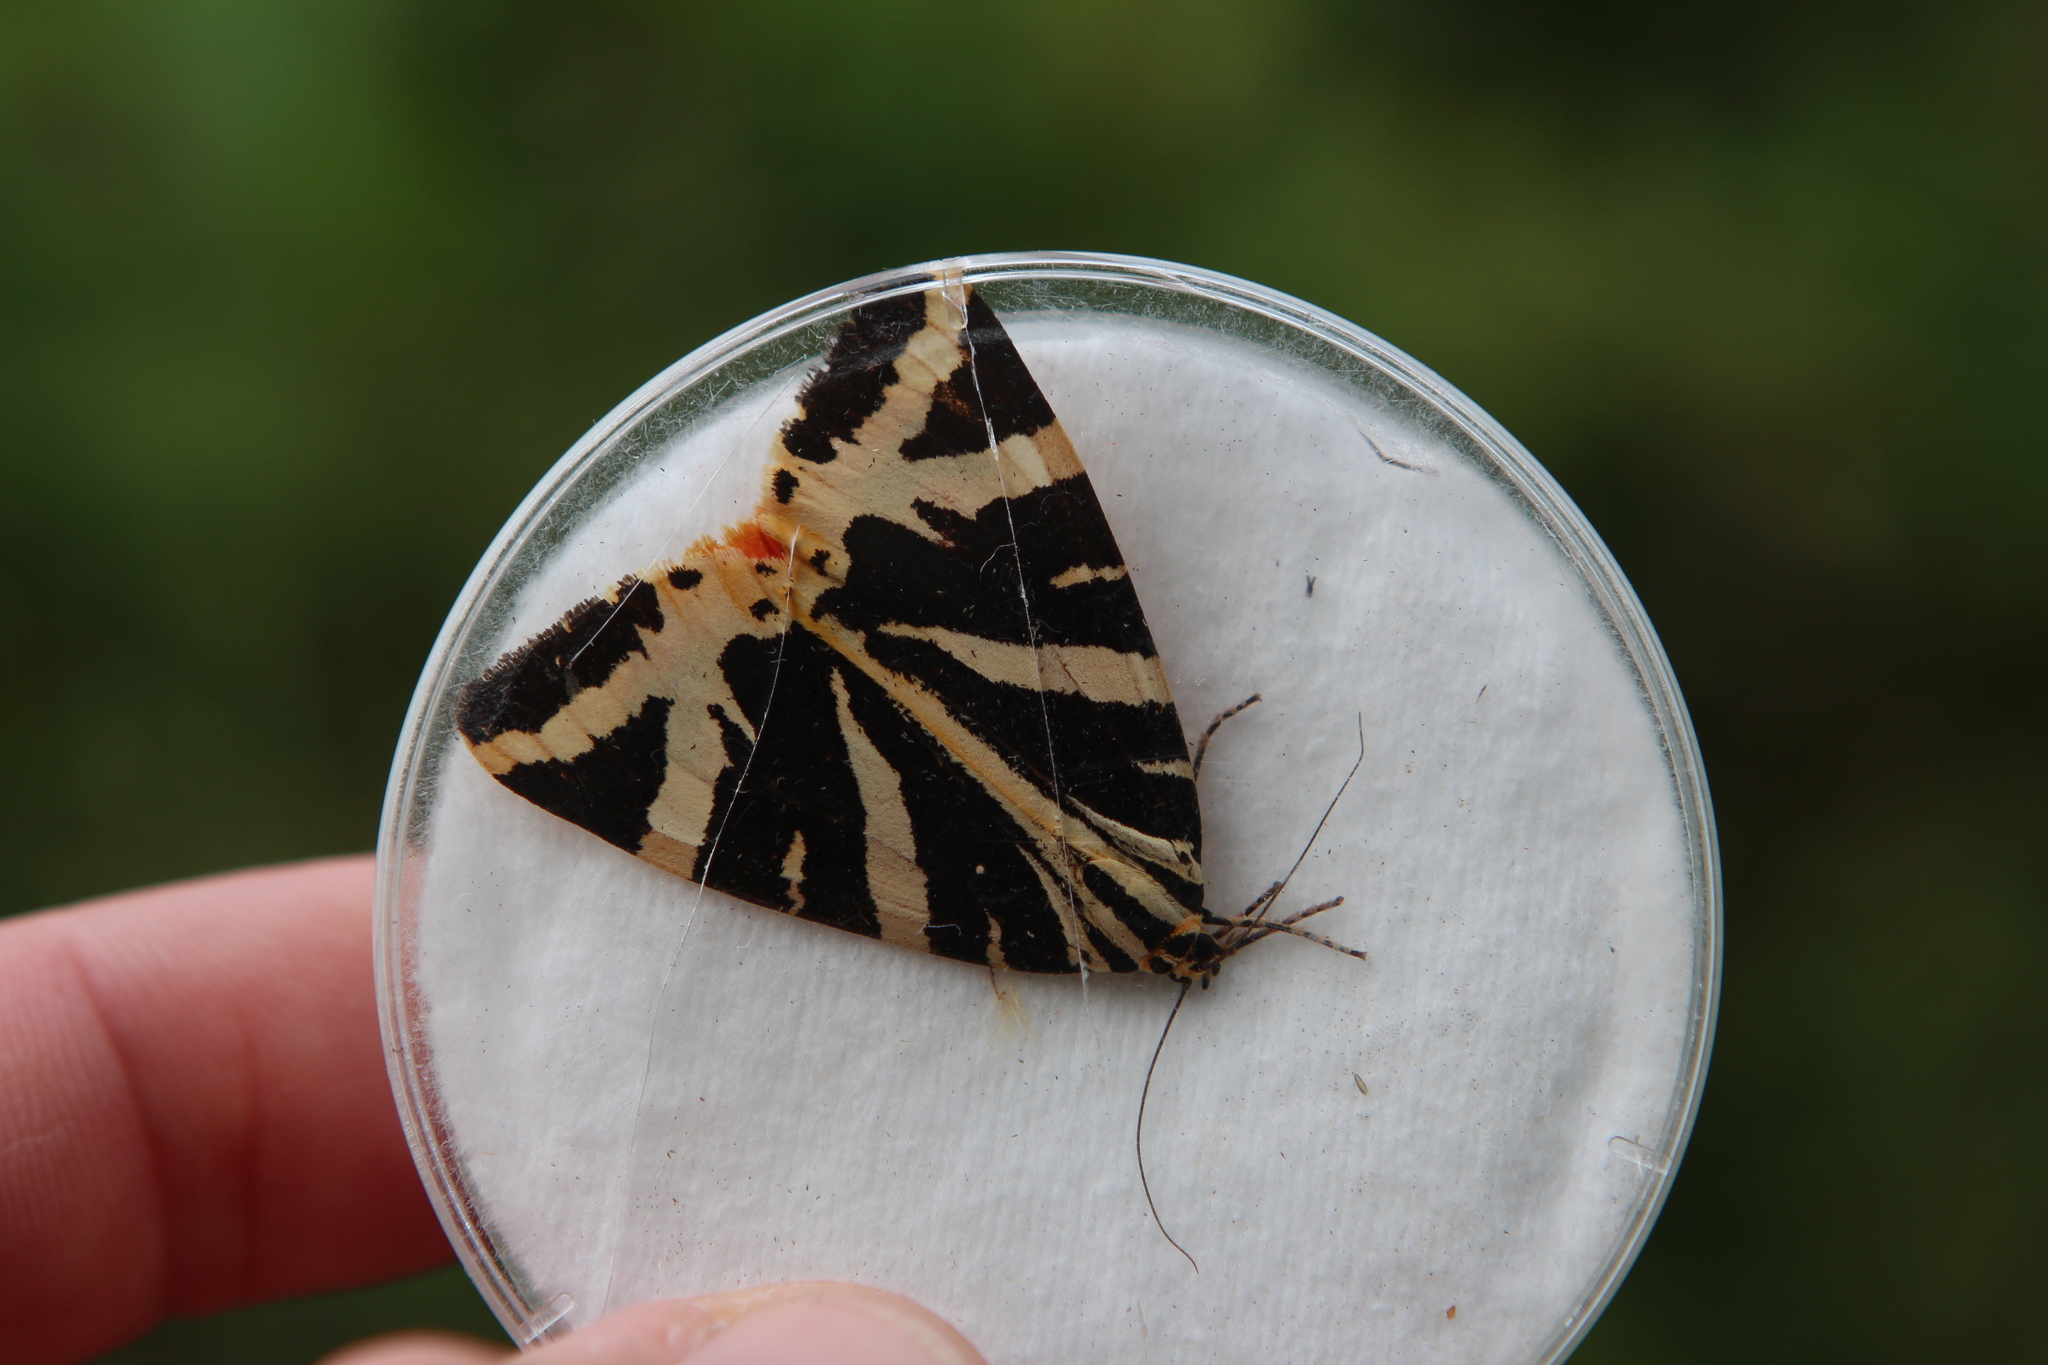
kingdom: Animalia
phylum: Arthropoda
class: Insecta
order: Lepidoptera
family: Erebidae
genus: Euplagia
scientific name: Euplagia quadripunctaria
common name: Jersey tiger
